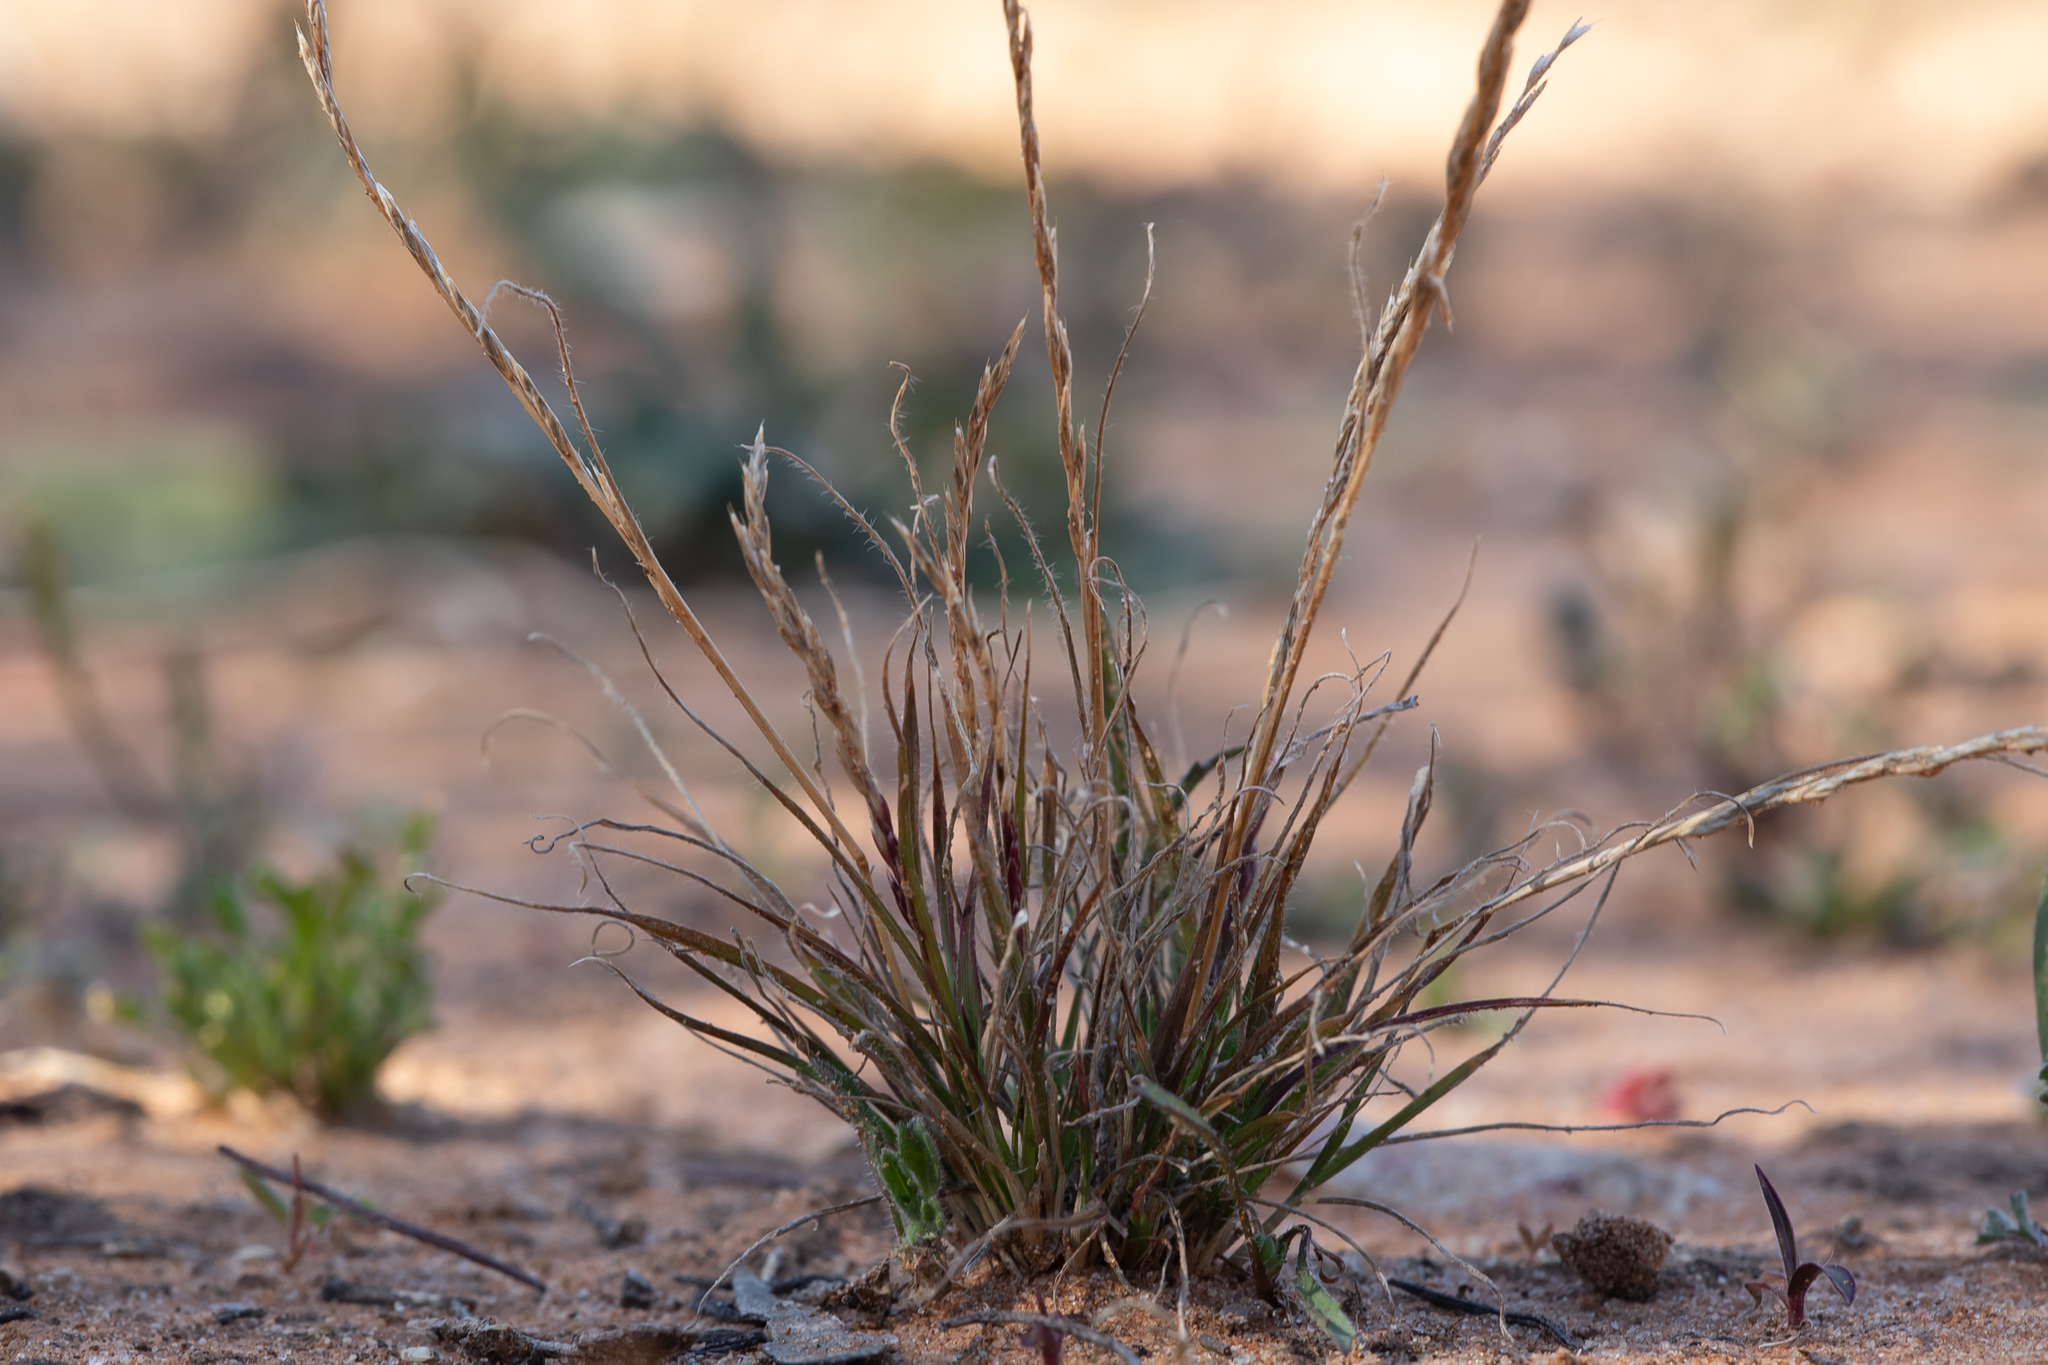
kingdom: Plantae
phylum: Tracheophyta
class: Liliopsida
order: Poales
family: Poaceae
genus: Tripogonella
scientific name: Tripogonella loliiformis
